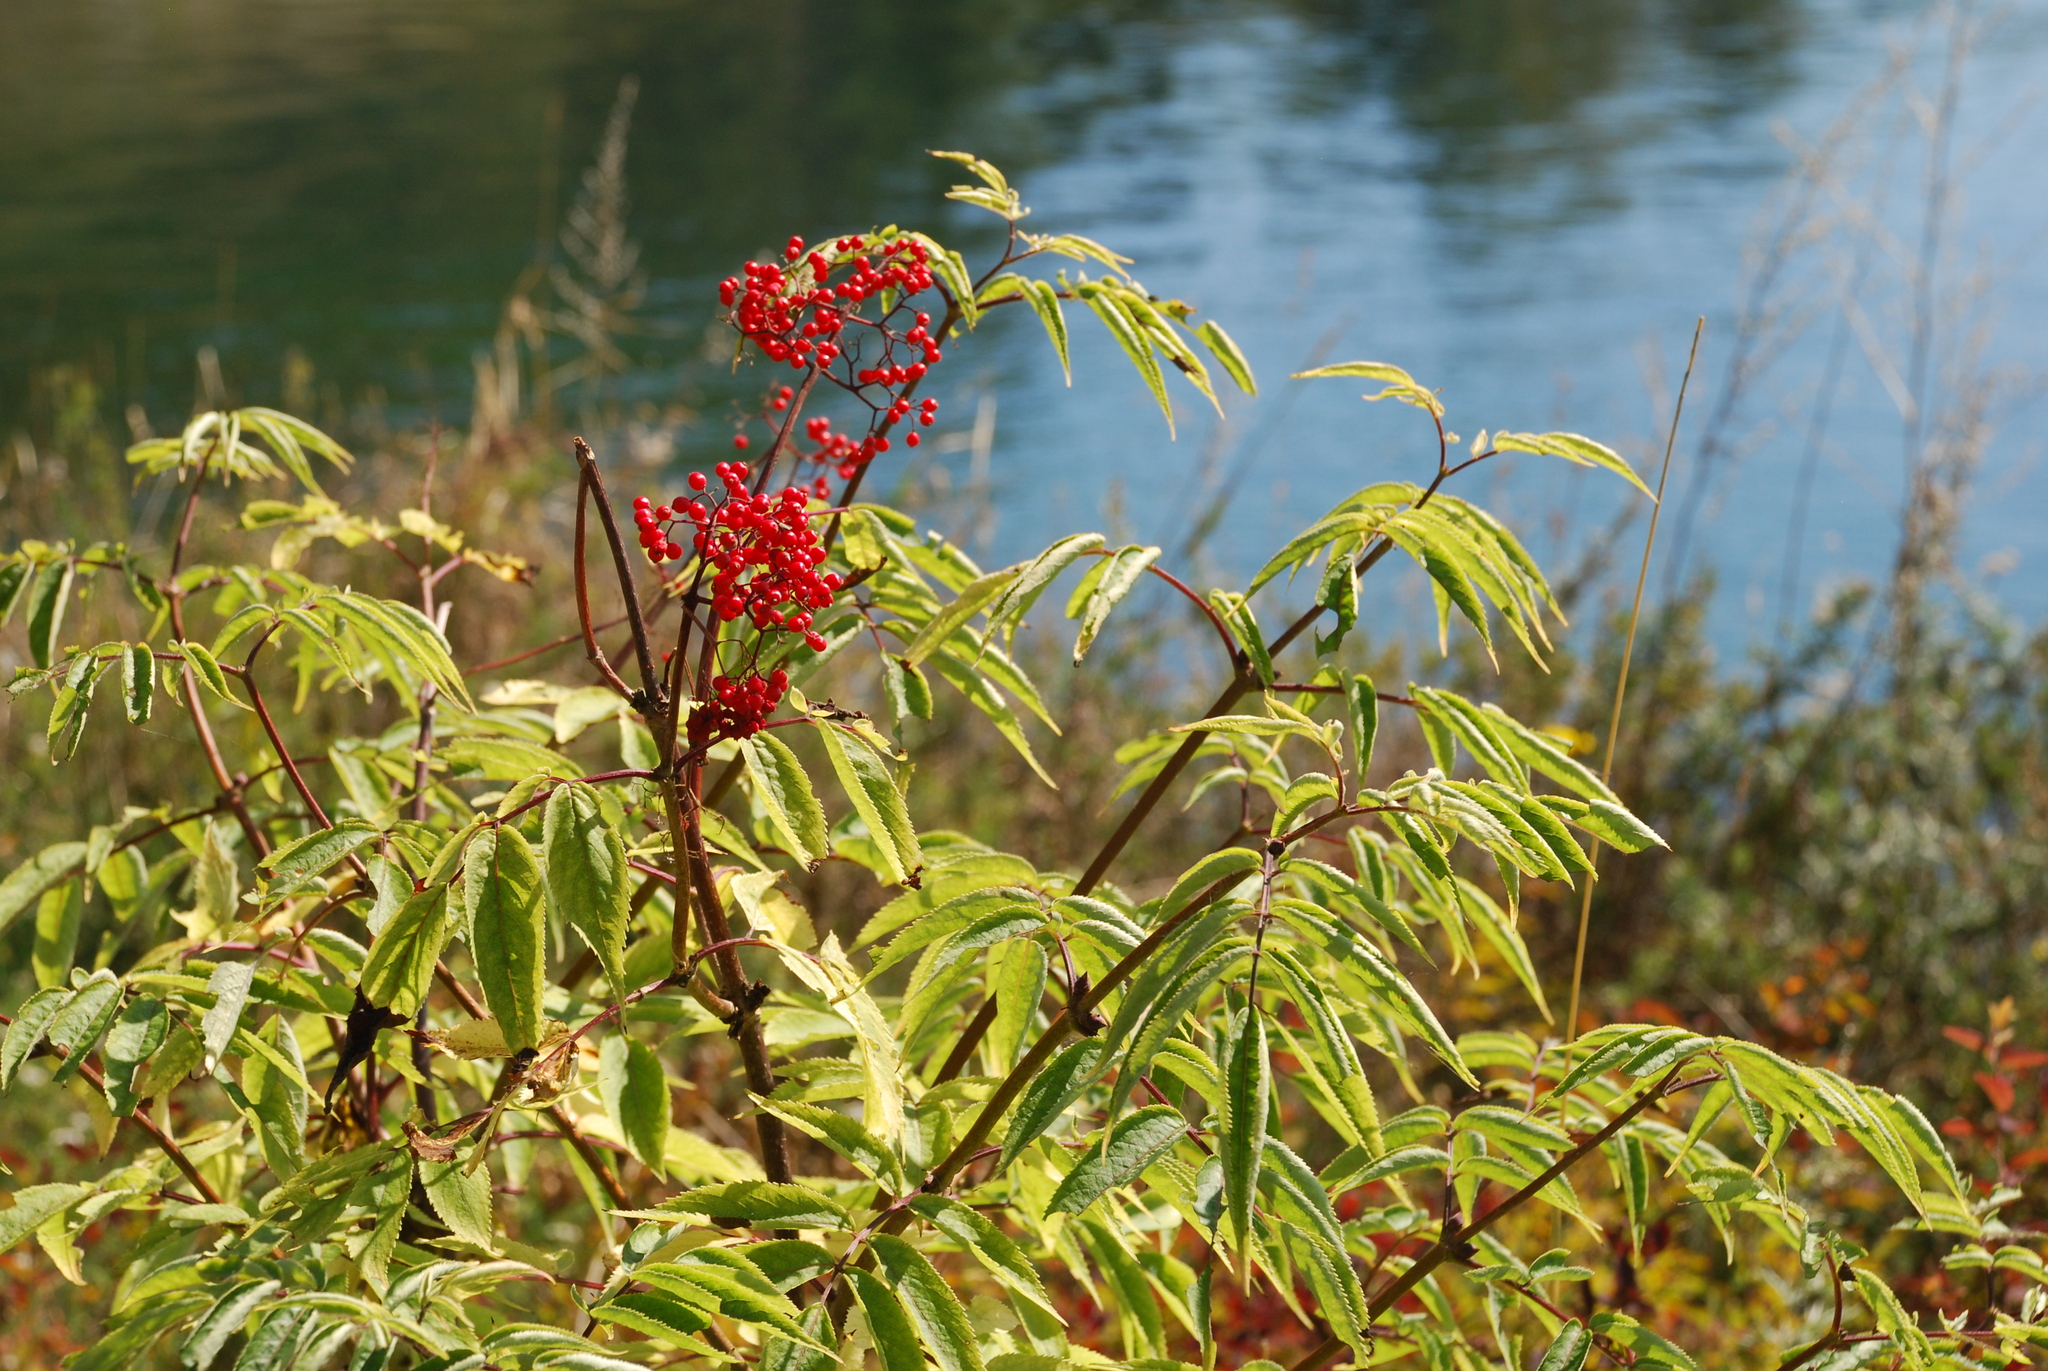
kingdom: Plantae
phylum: Tracheophyta
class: Magnoliopsida
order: Dipsacales
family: Viburnaceae
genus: Sambucus
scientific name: Sambucus sibirica
